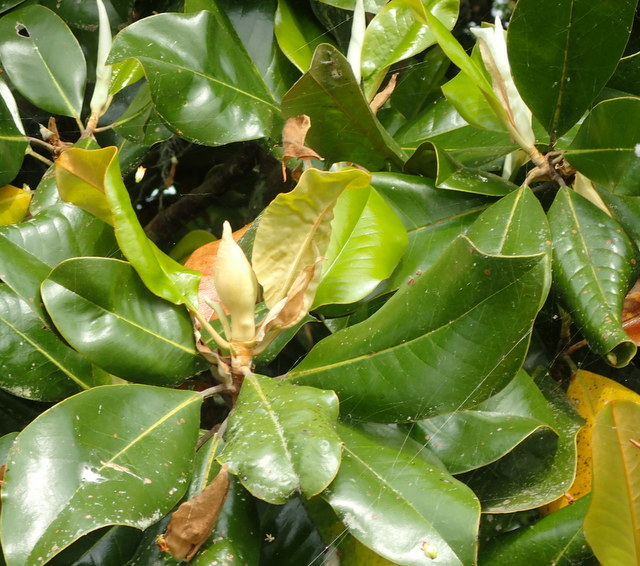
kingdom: Plantae
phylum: Tracheophyta
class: Magnoliopsida
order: Magnoliales
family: Magnoliaceae
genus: Magnolia
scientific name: Magnolia grandiflora
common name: Southern magnolia
